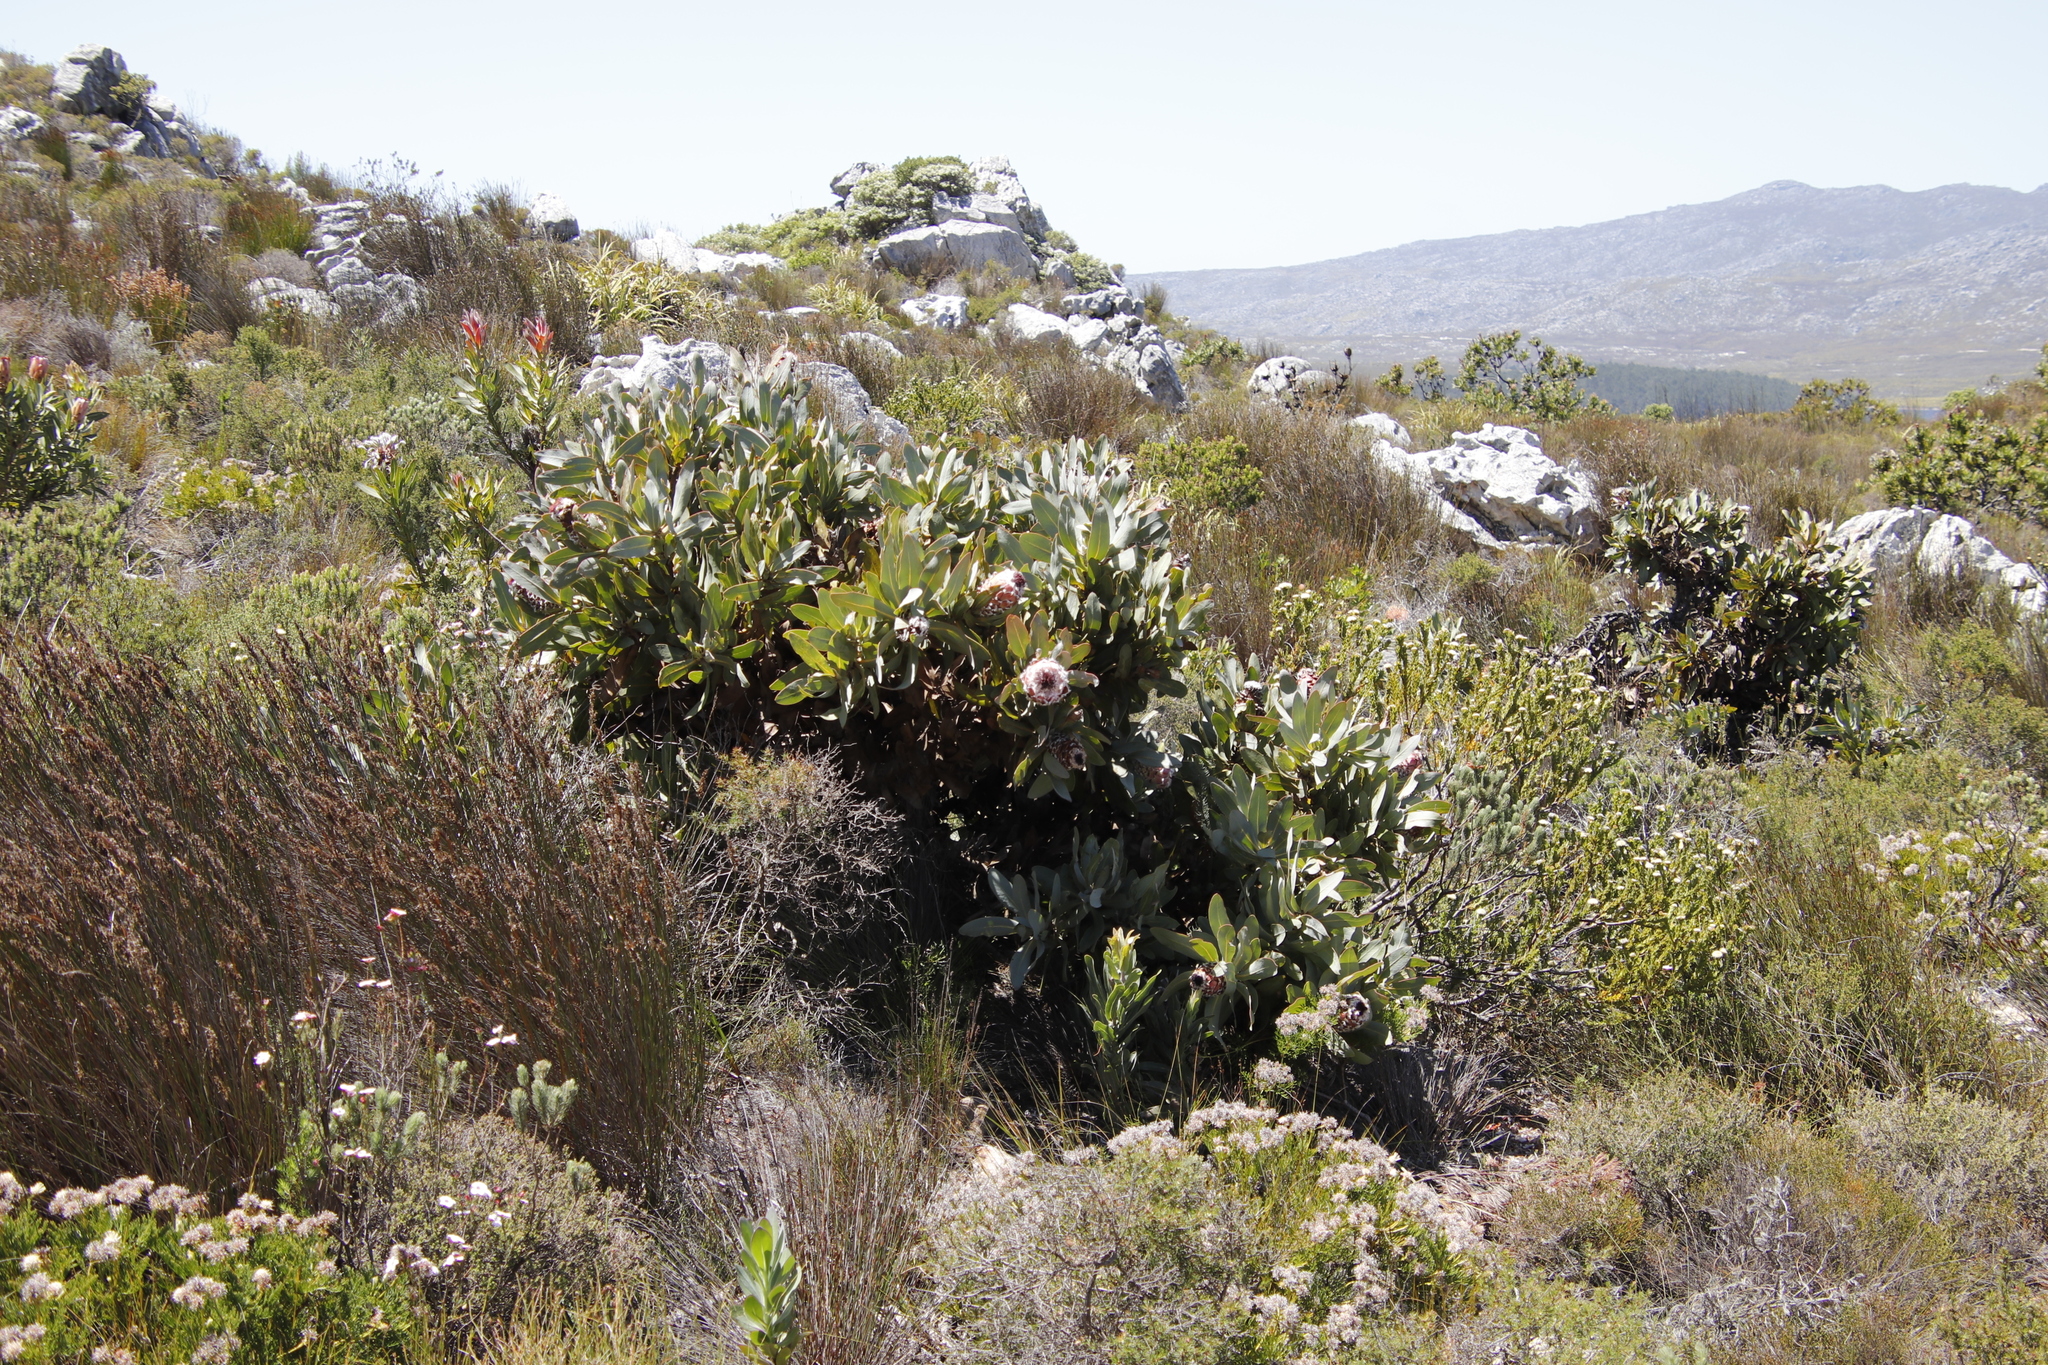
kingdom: Plantae
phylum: Tracheophyta
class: Magnoliopsida
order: Proteales
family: Proteaceae
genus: Protea
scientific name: Protea magnifica
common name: Bearded sugarbush
